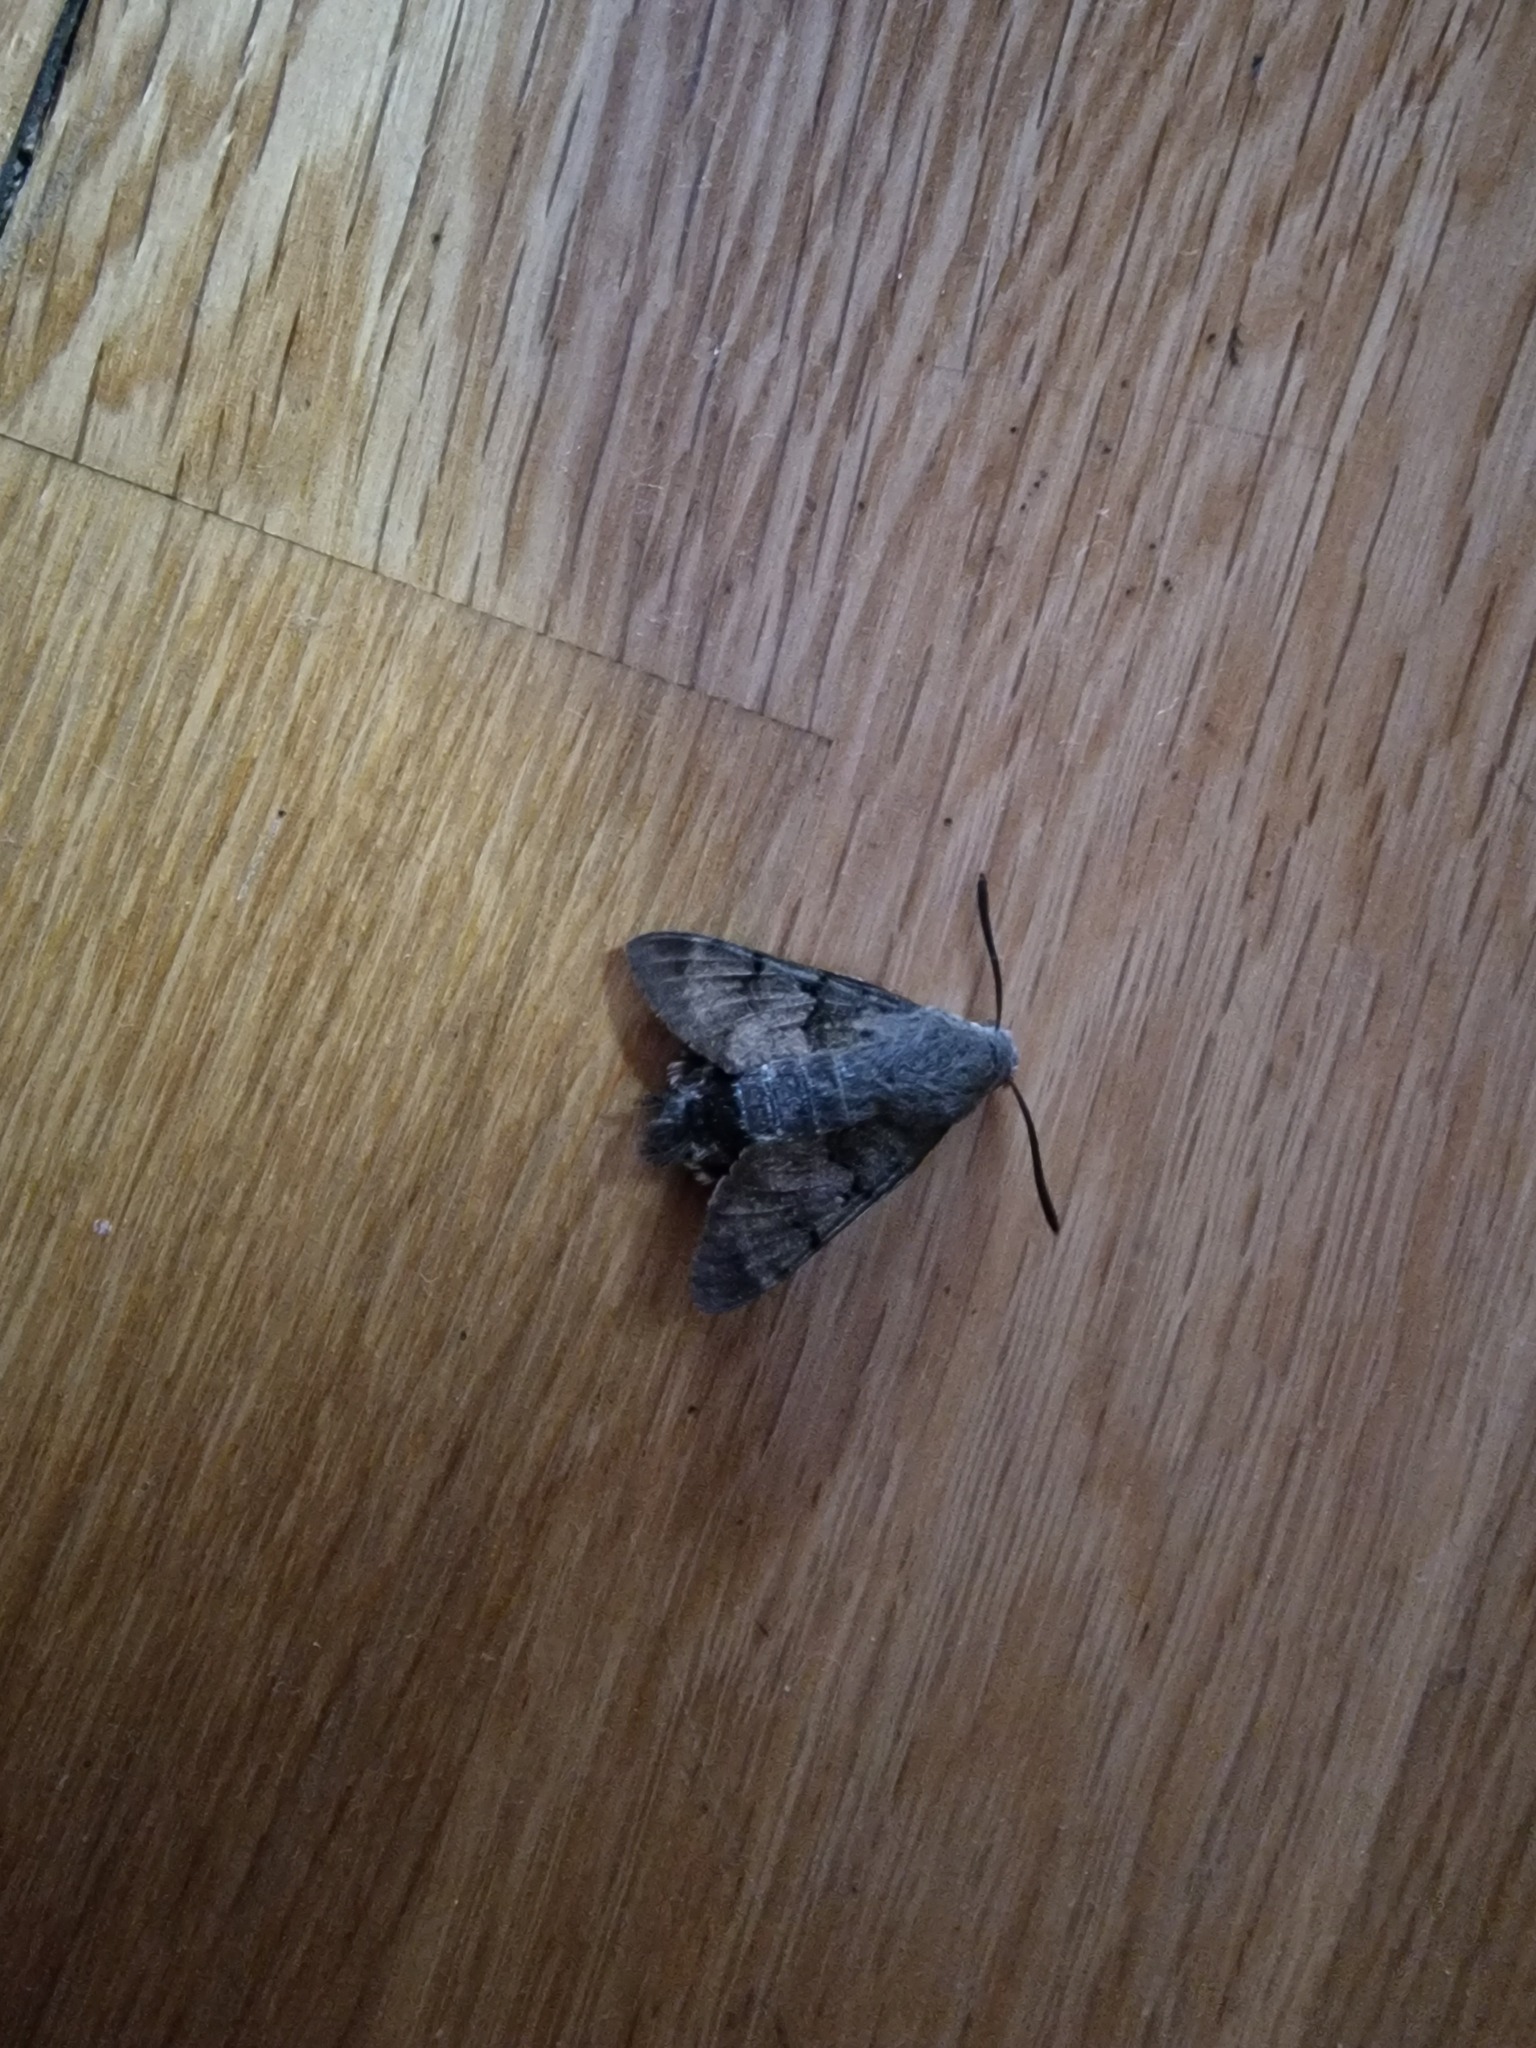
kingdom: Animalia
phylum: Arthropoda
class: Insecta
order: Lepidoptera
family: Sphingidae
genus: Macroglossum
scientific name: Macroglossum stellatarum
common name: Humming-bird hawk-moth
